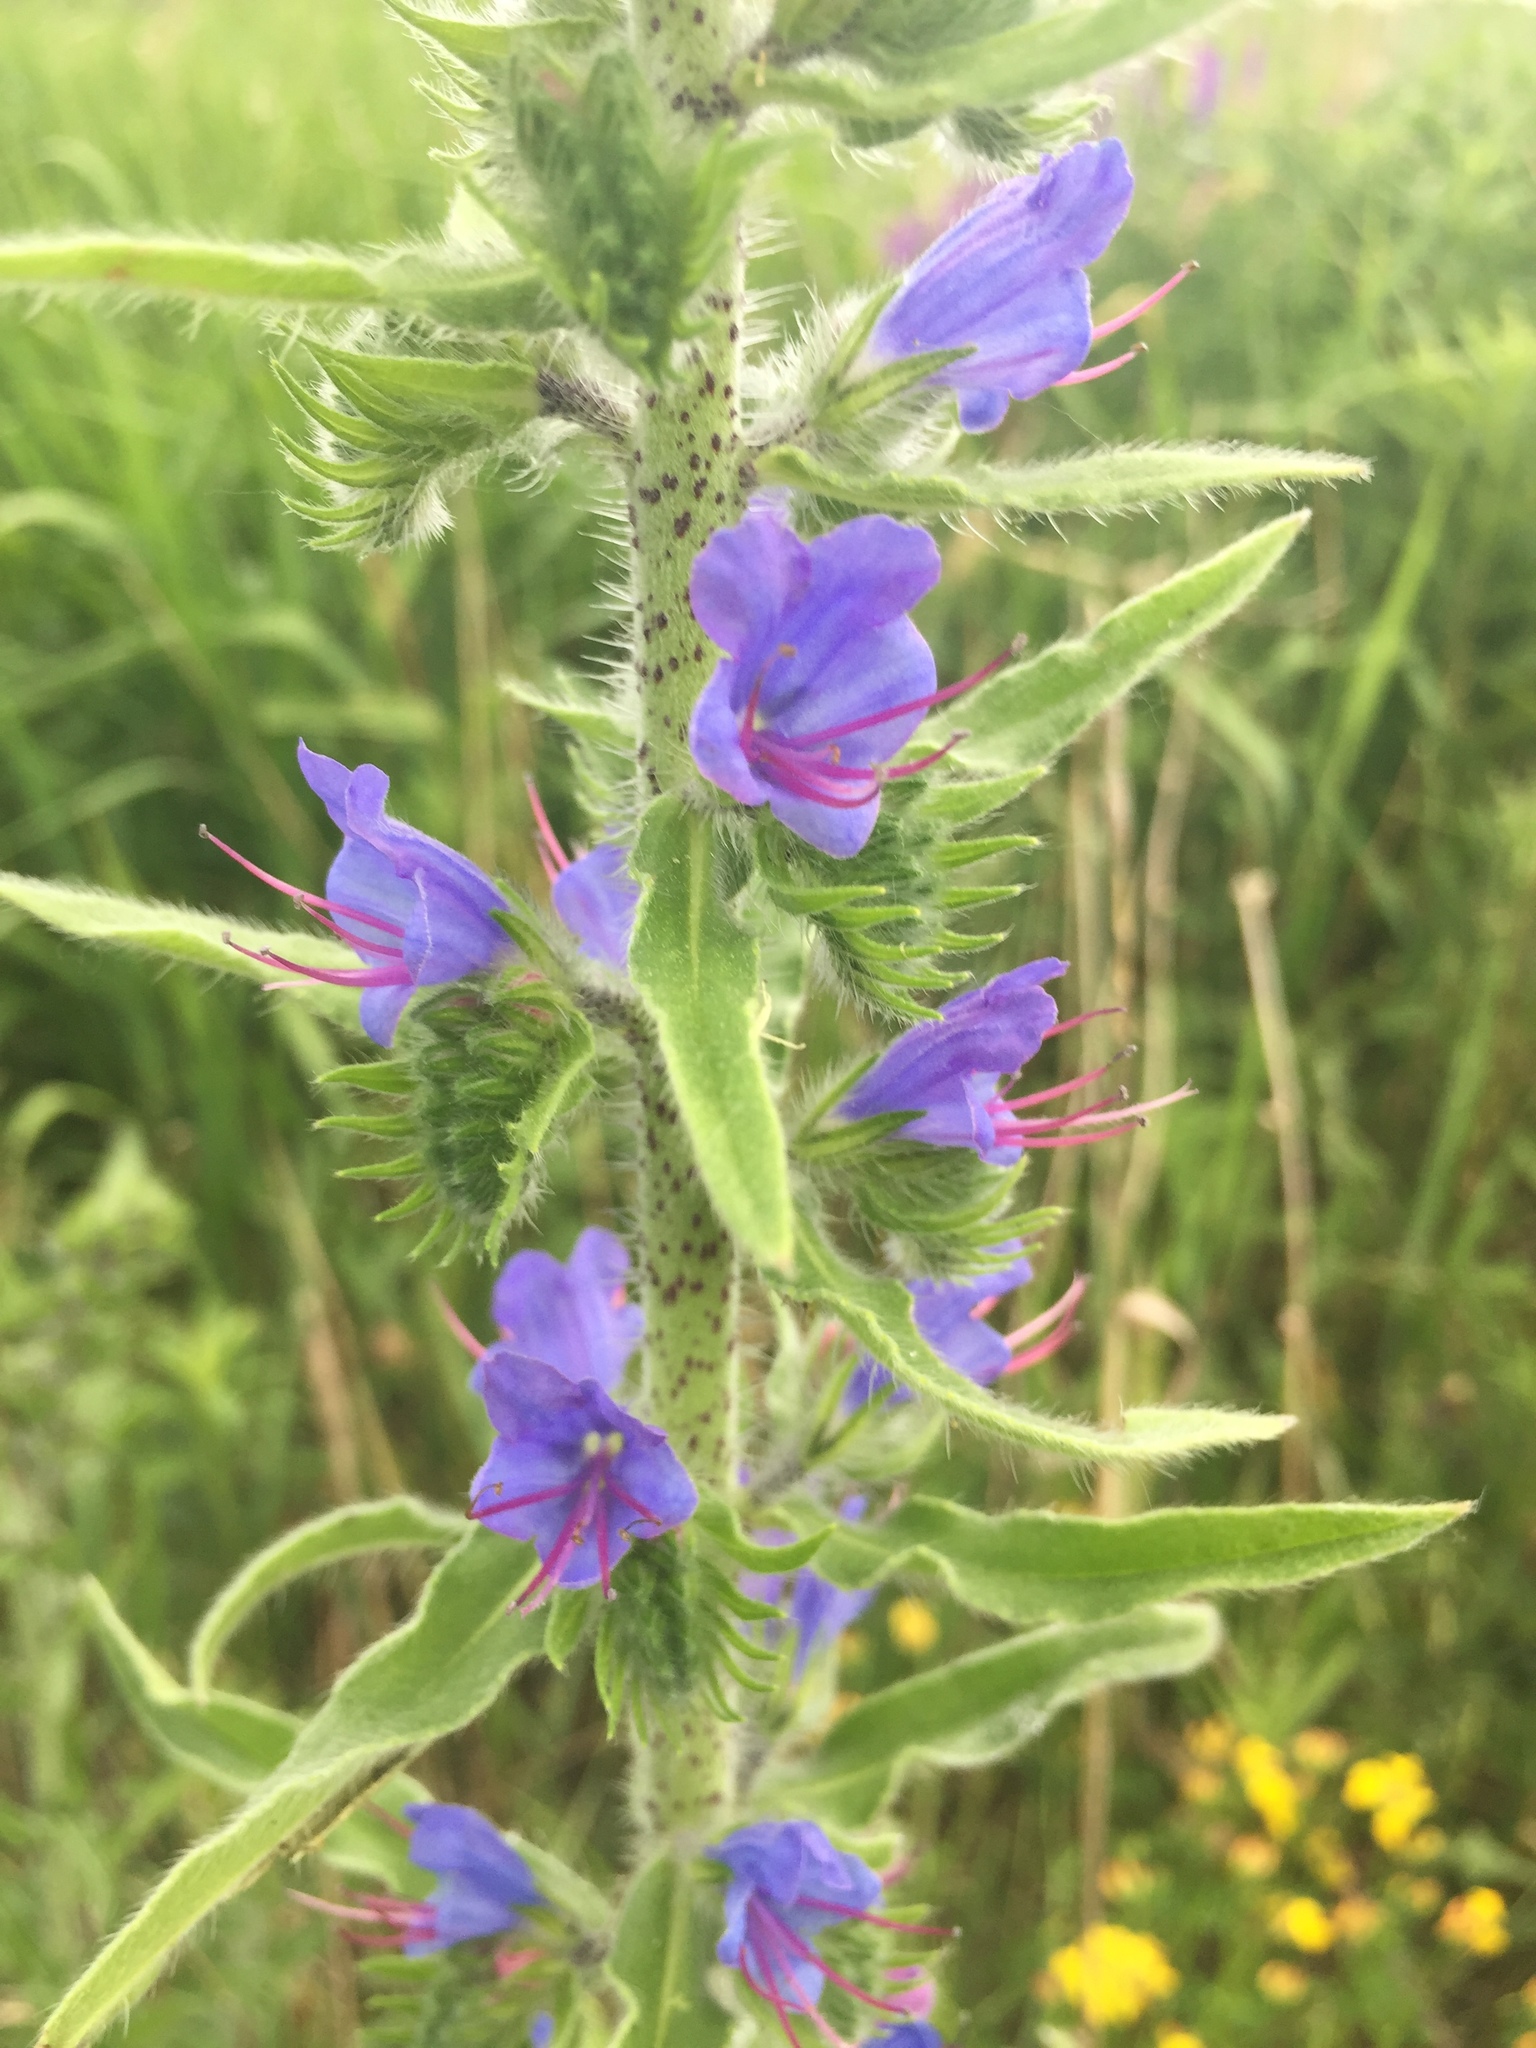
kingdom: Plantae
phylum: Tracheophyta
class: Magnoliopsida
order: Boraginales
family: Boraginaceae
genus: Echium
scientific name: Echium vulgare
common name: Common viper's bugloss
